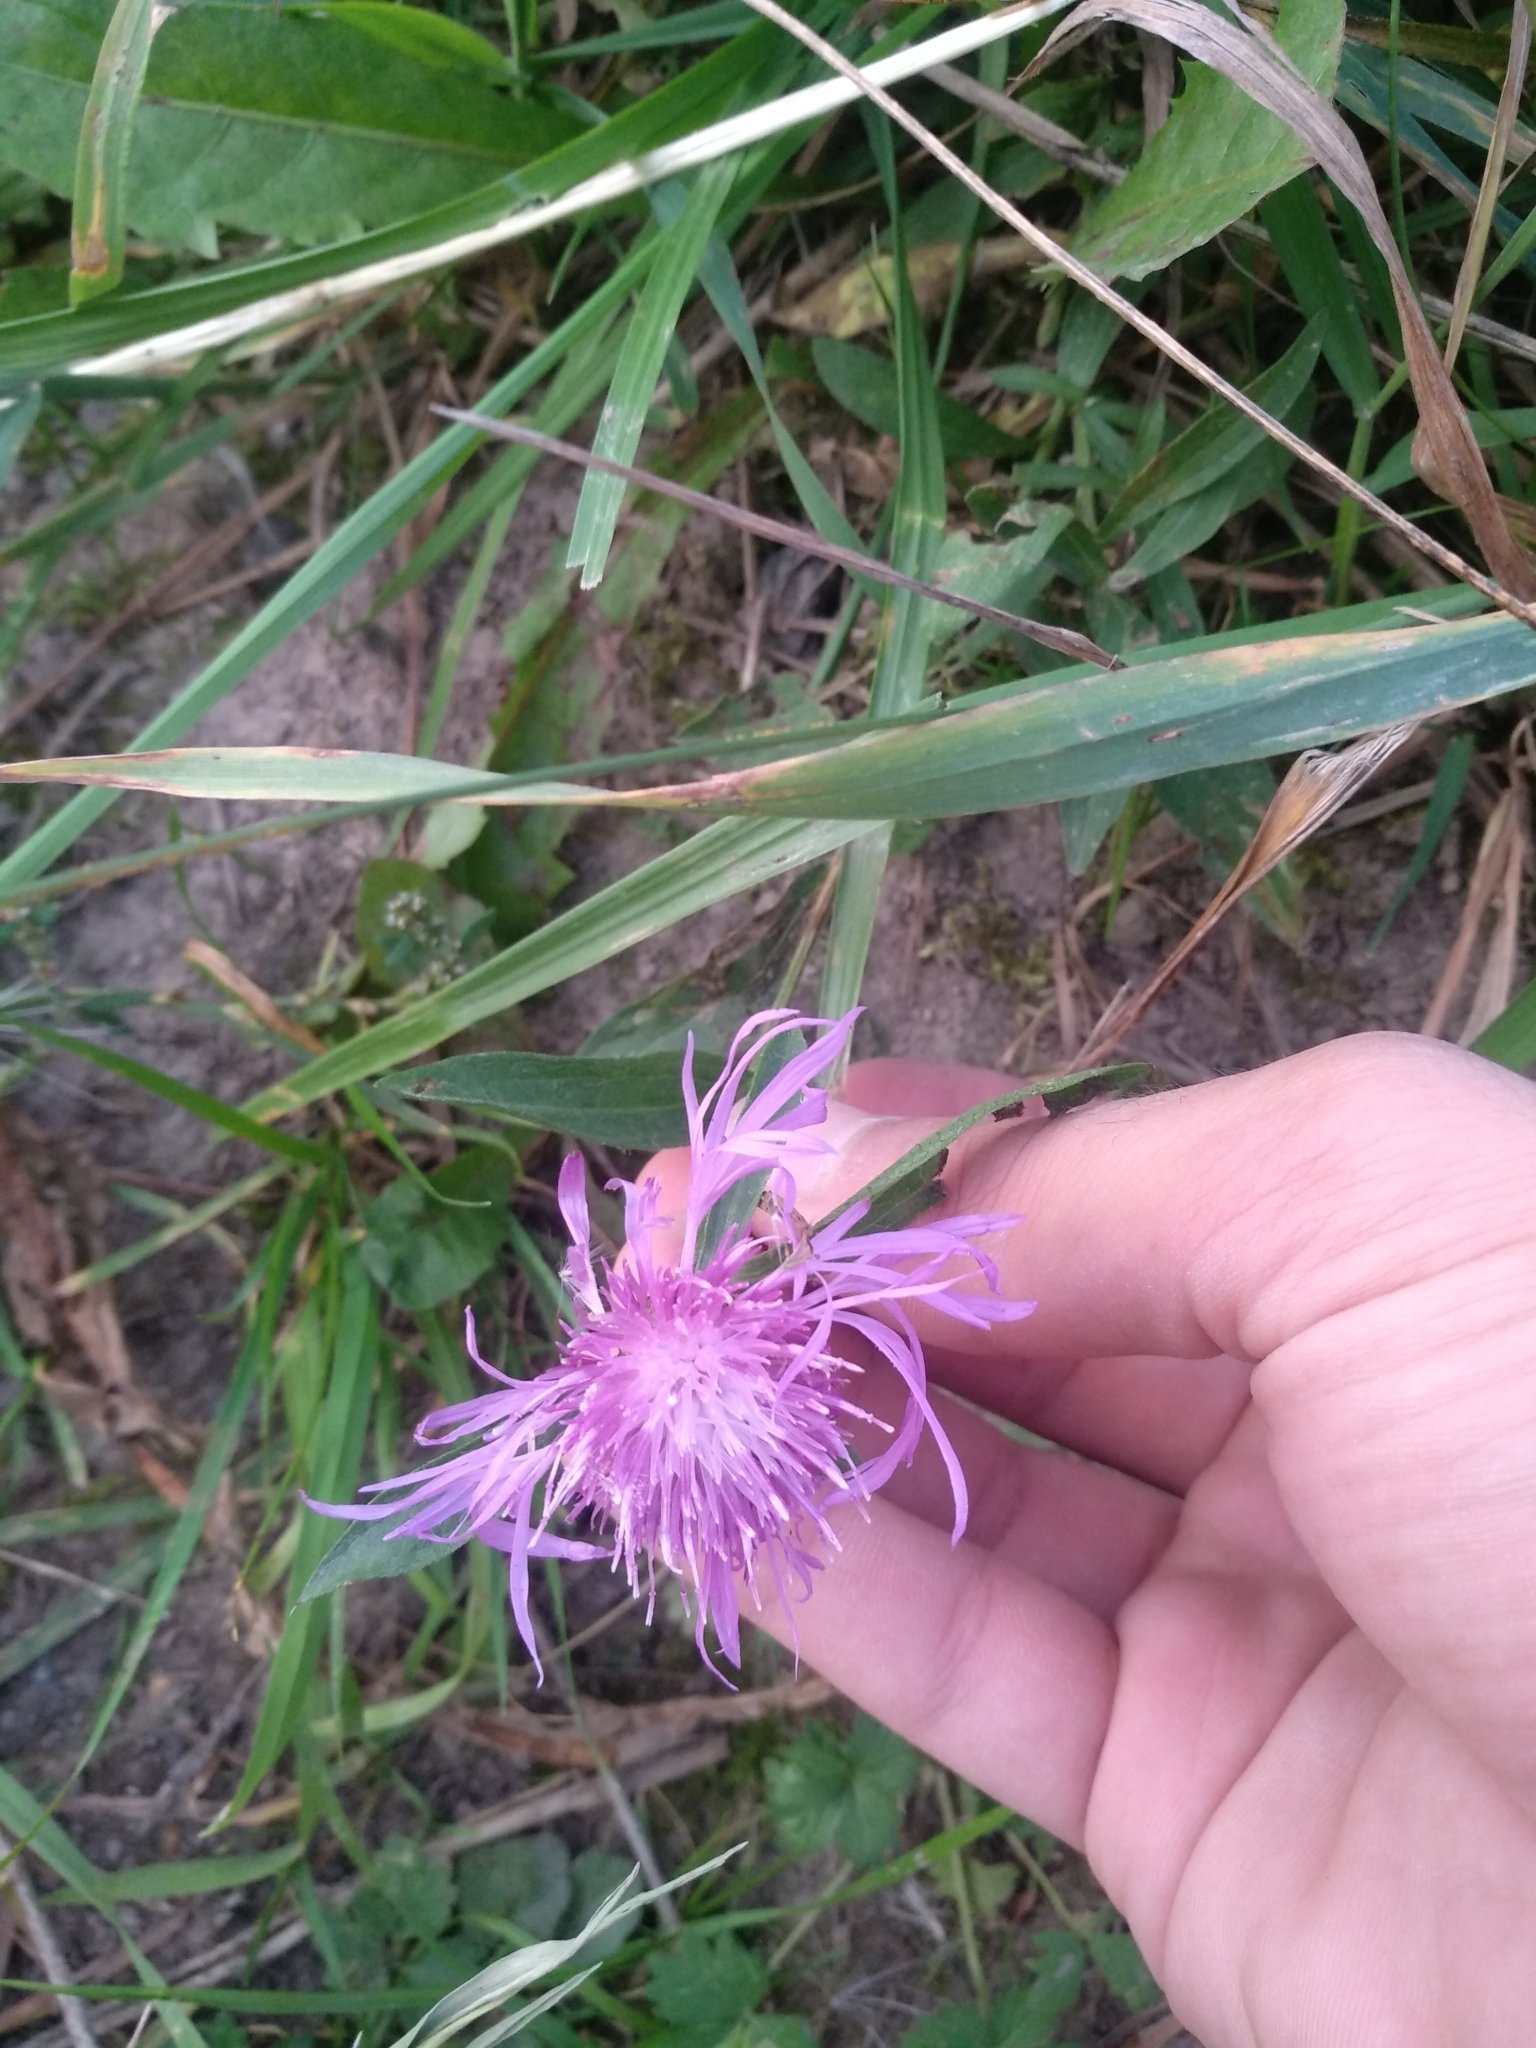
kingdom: Plantae
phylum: Tracheophyta
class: Magnoliopsida
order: Asterales
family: Asteraceae
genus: Centaurea
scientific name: Centaurea jacea
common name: Brown knapweed
